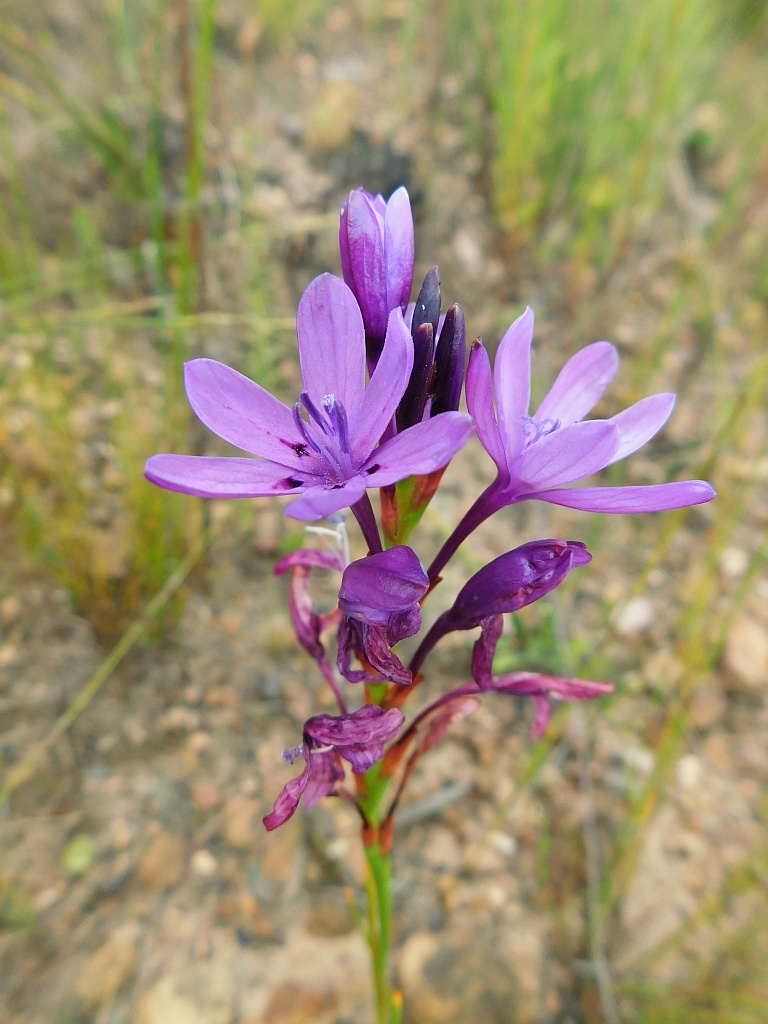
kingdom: Plantae
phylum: Tracheophyta
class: Liliopsida
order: Asparagales
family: Iridaceae
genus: Thereianthus
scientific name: Thereianthus bracteolatus
